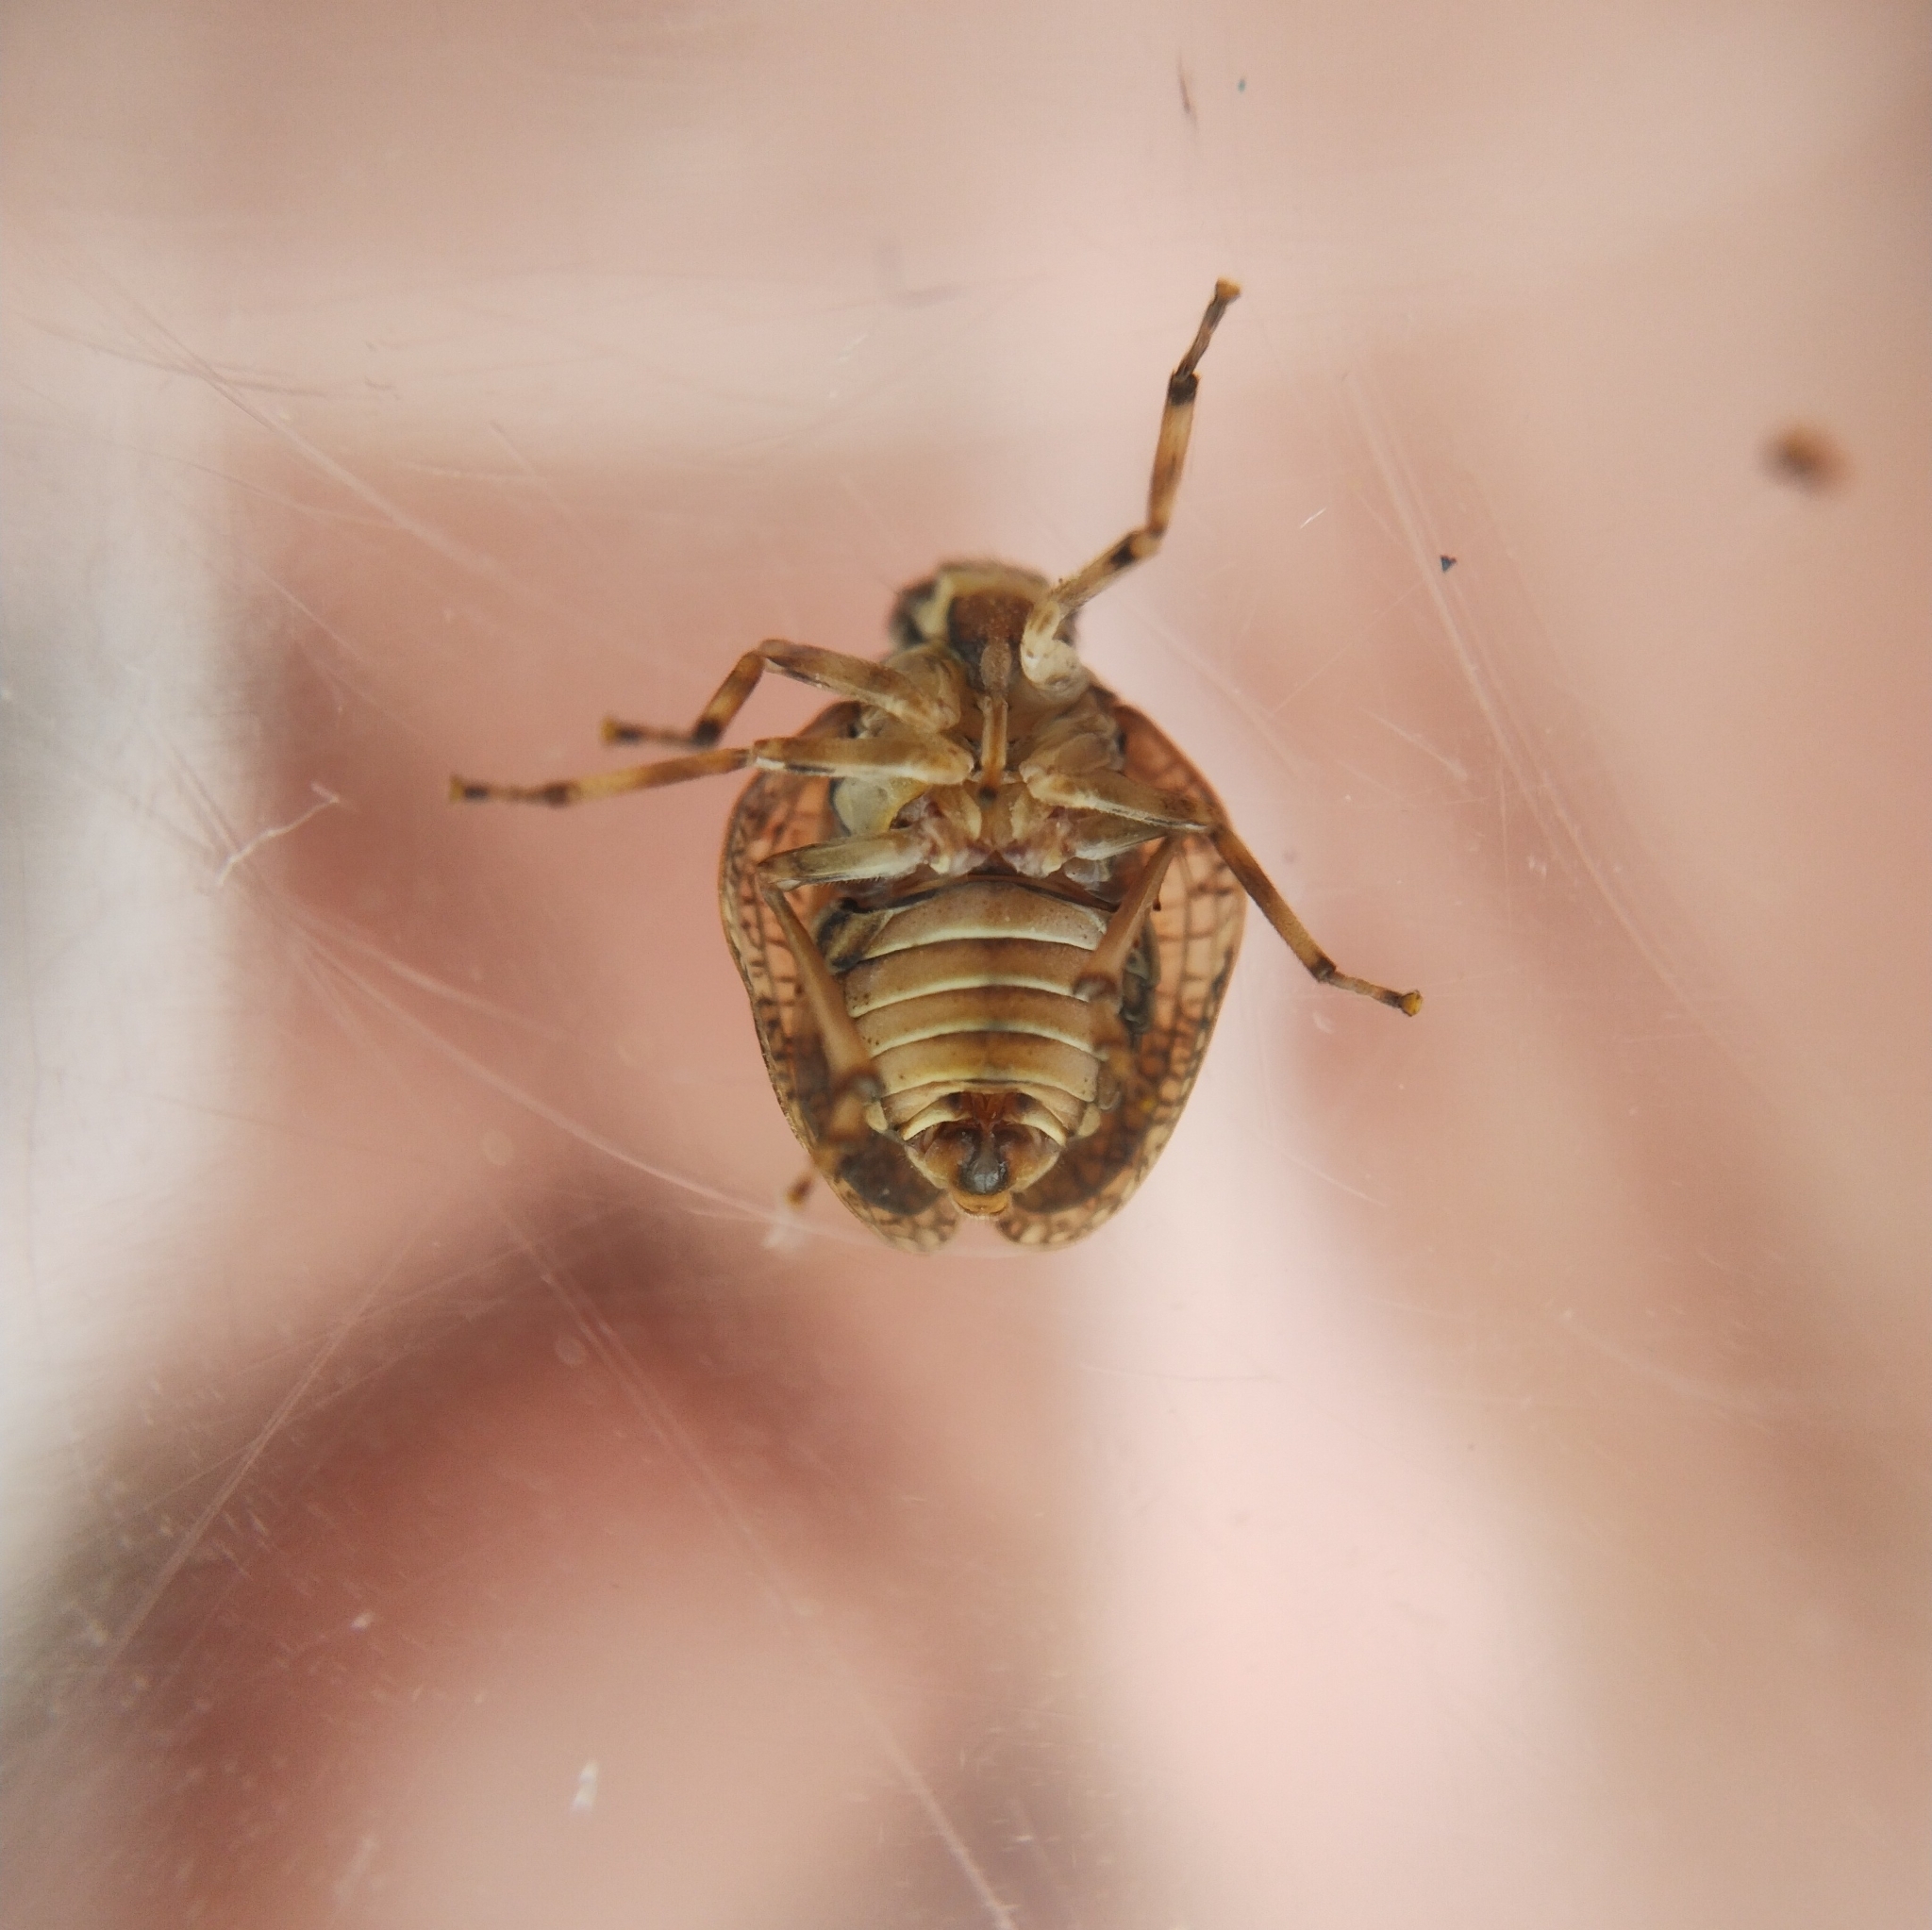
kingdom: Animalia
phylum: Arthropoda
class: Insecta
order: Hemiptera
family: Issidae
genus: Issus
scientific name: Issus muscaeformis
